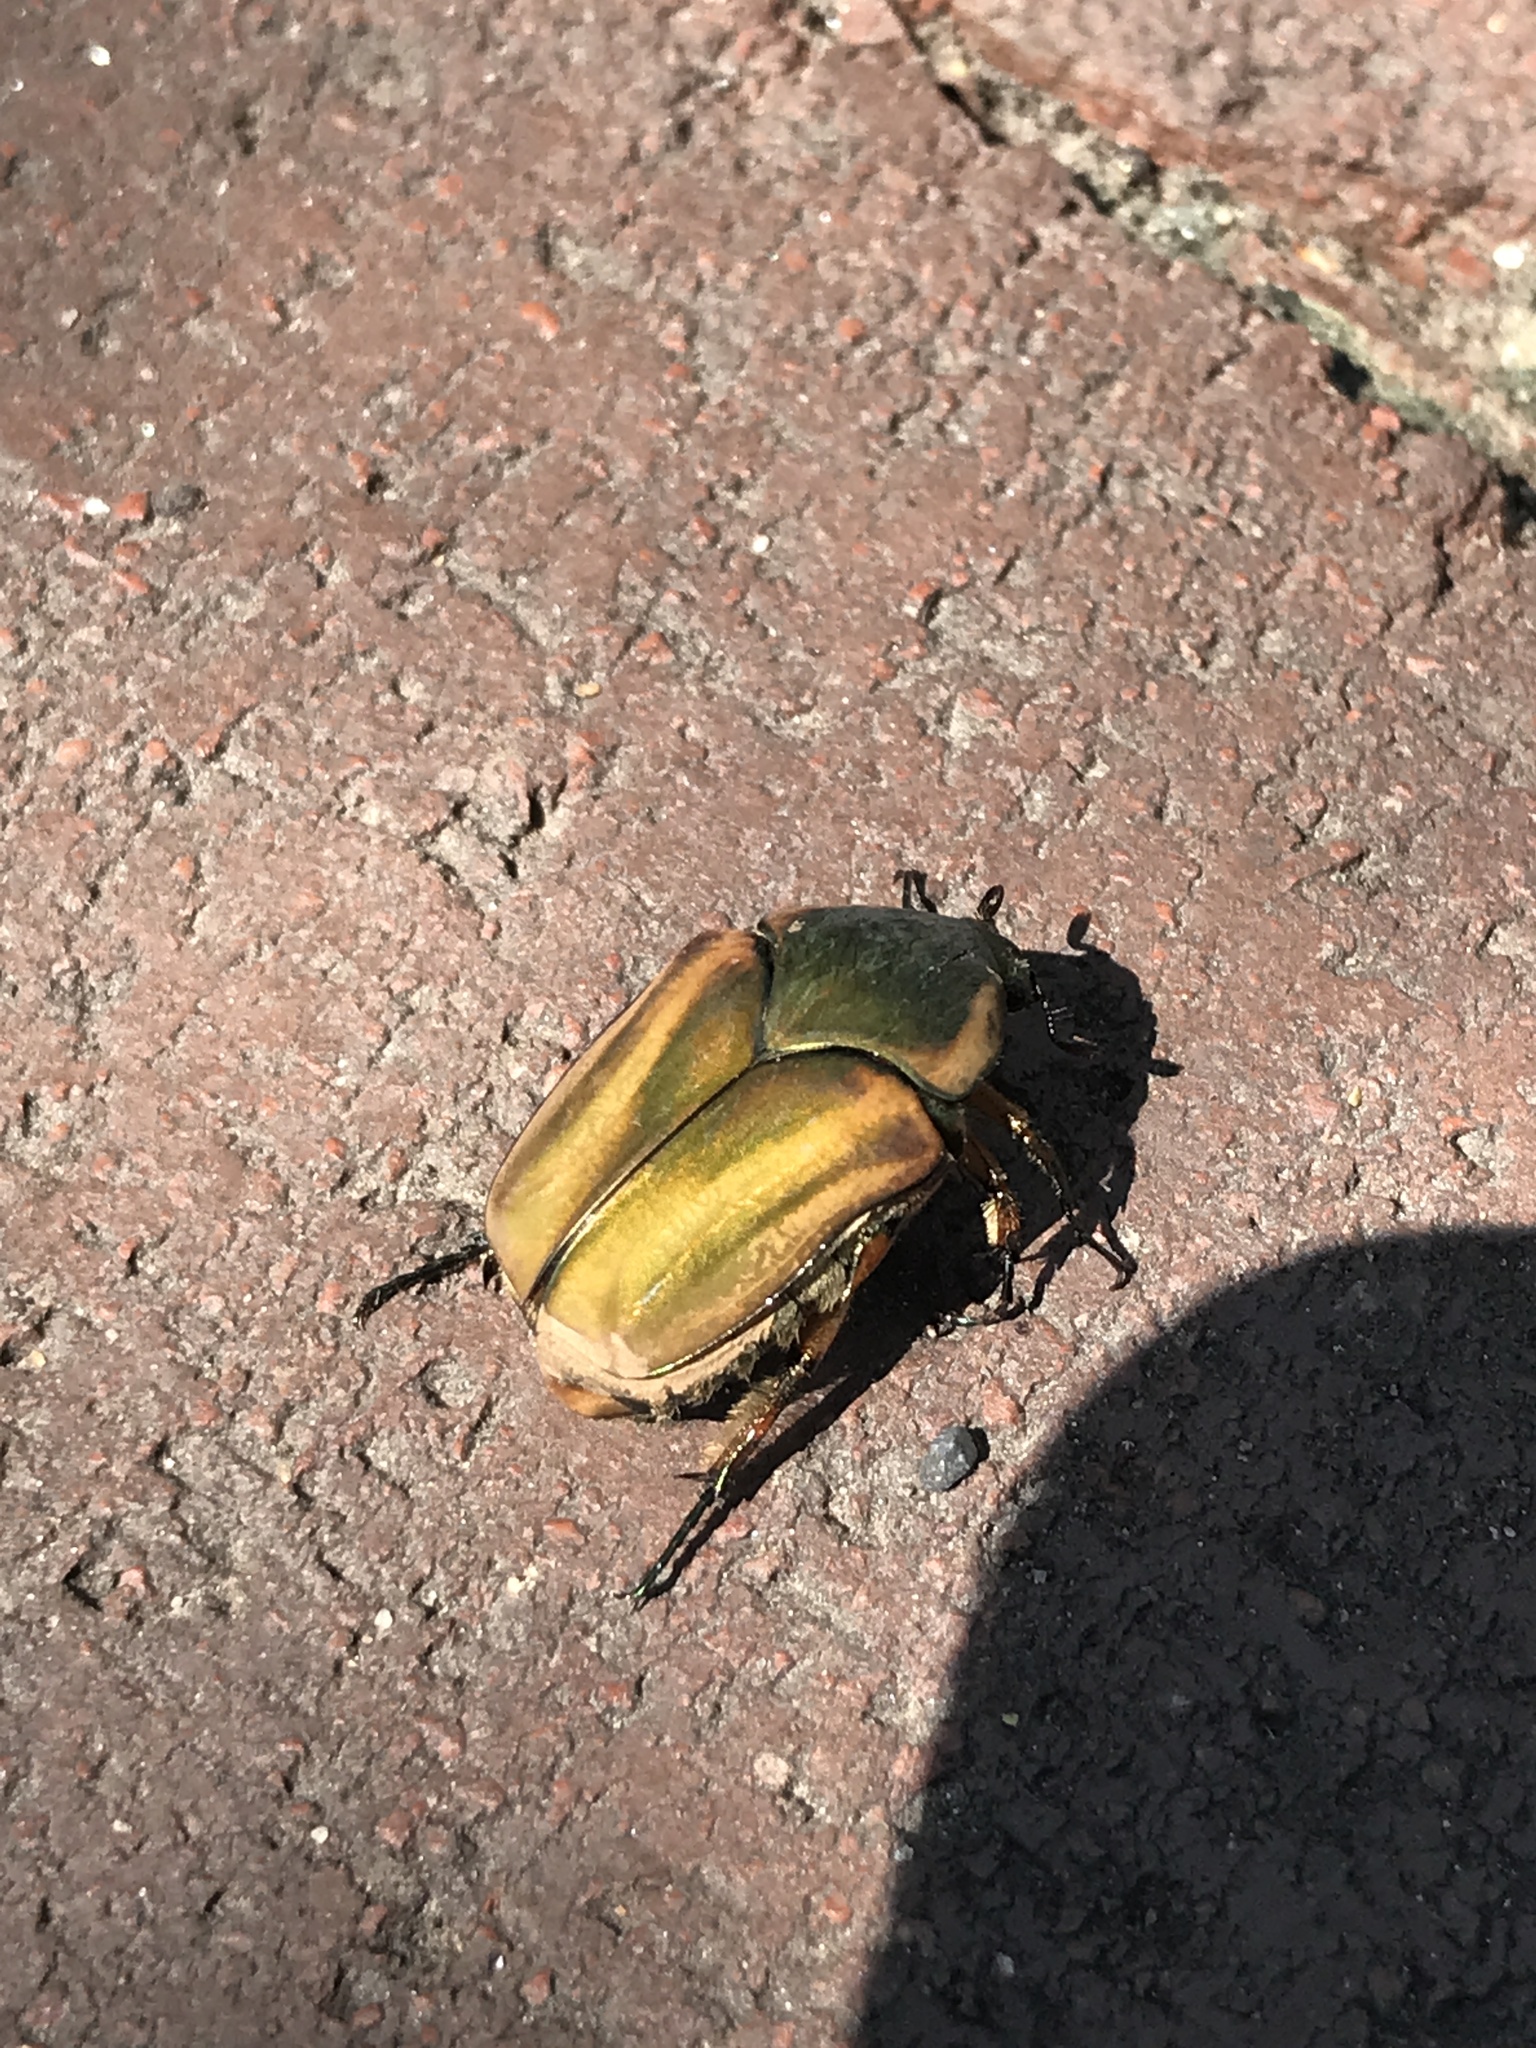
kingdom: Animalia
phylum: Arthropoda
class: Insecta
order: Coleoptera
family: Scarabaeidae
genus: Cotinis
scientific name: Cotinis nitida
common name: Common green june beetle
